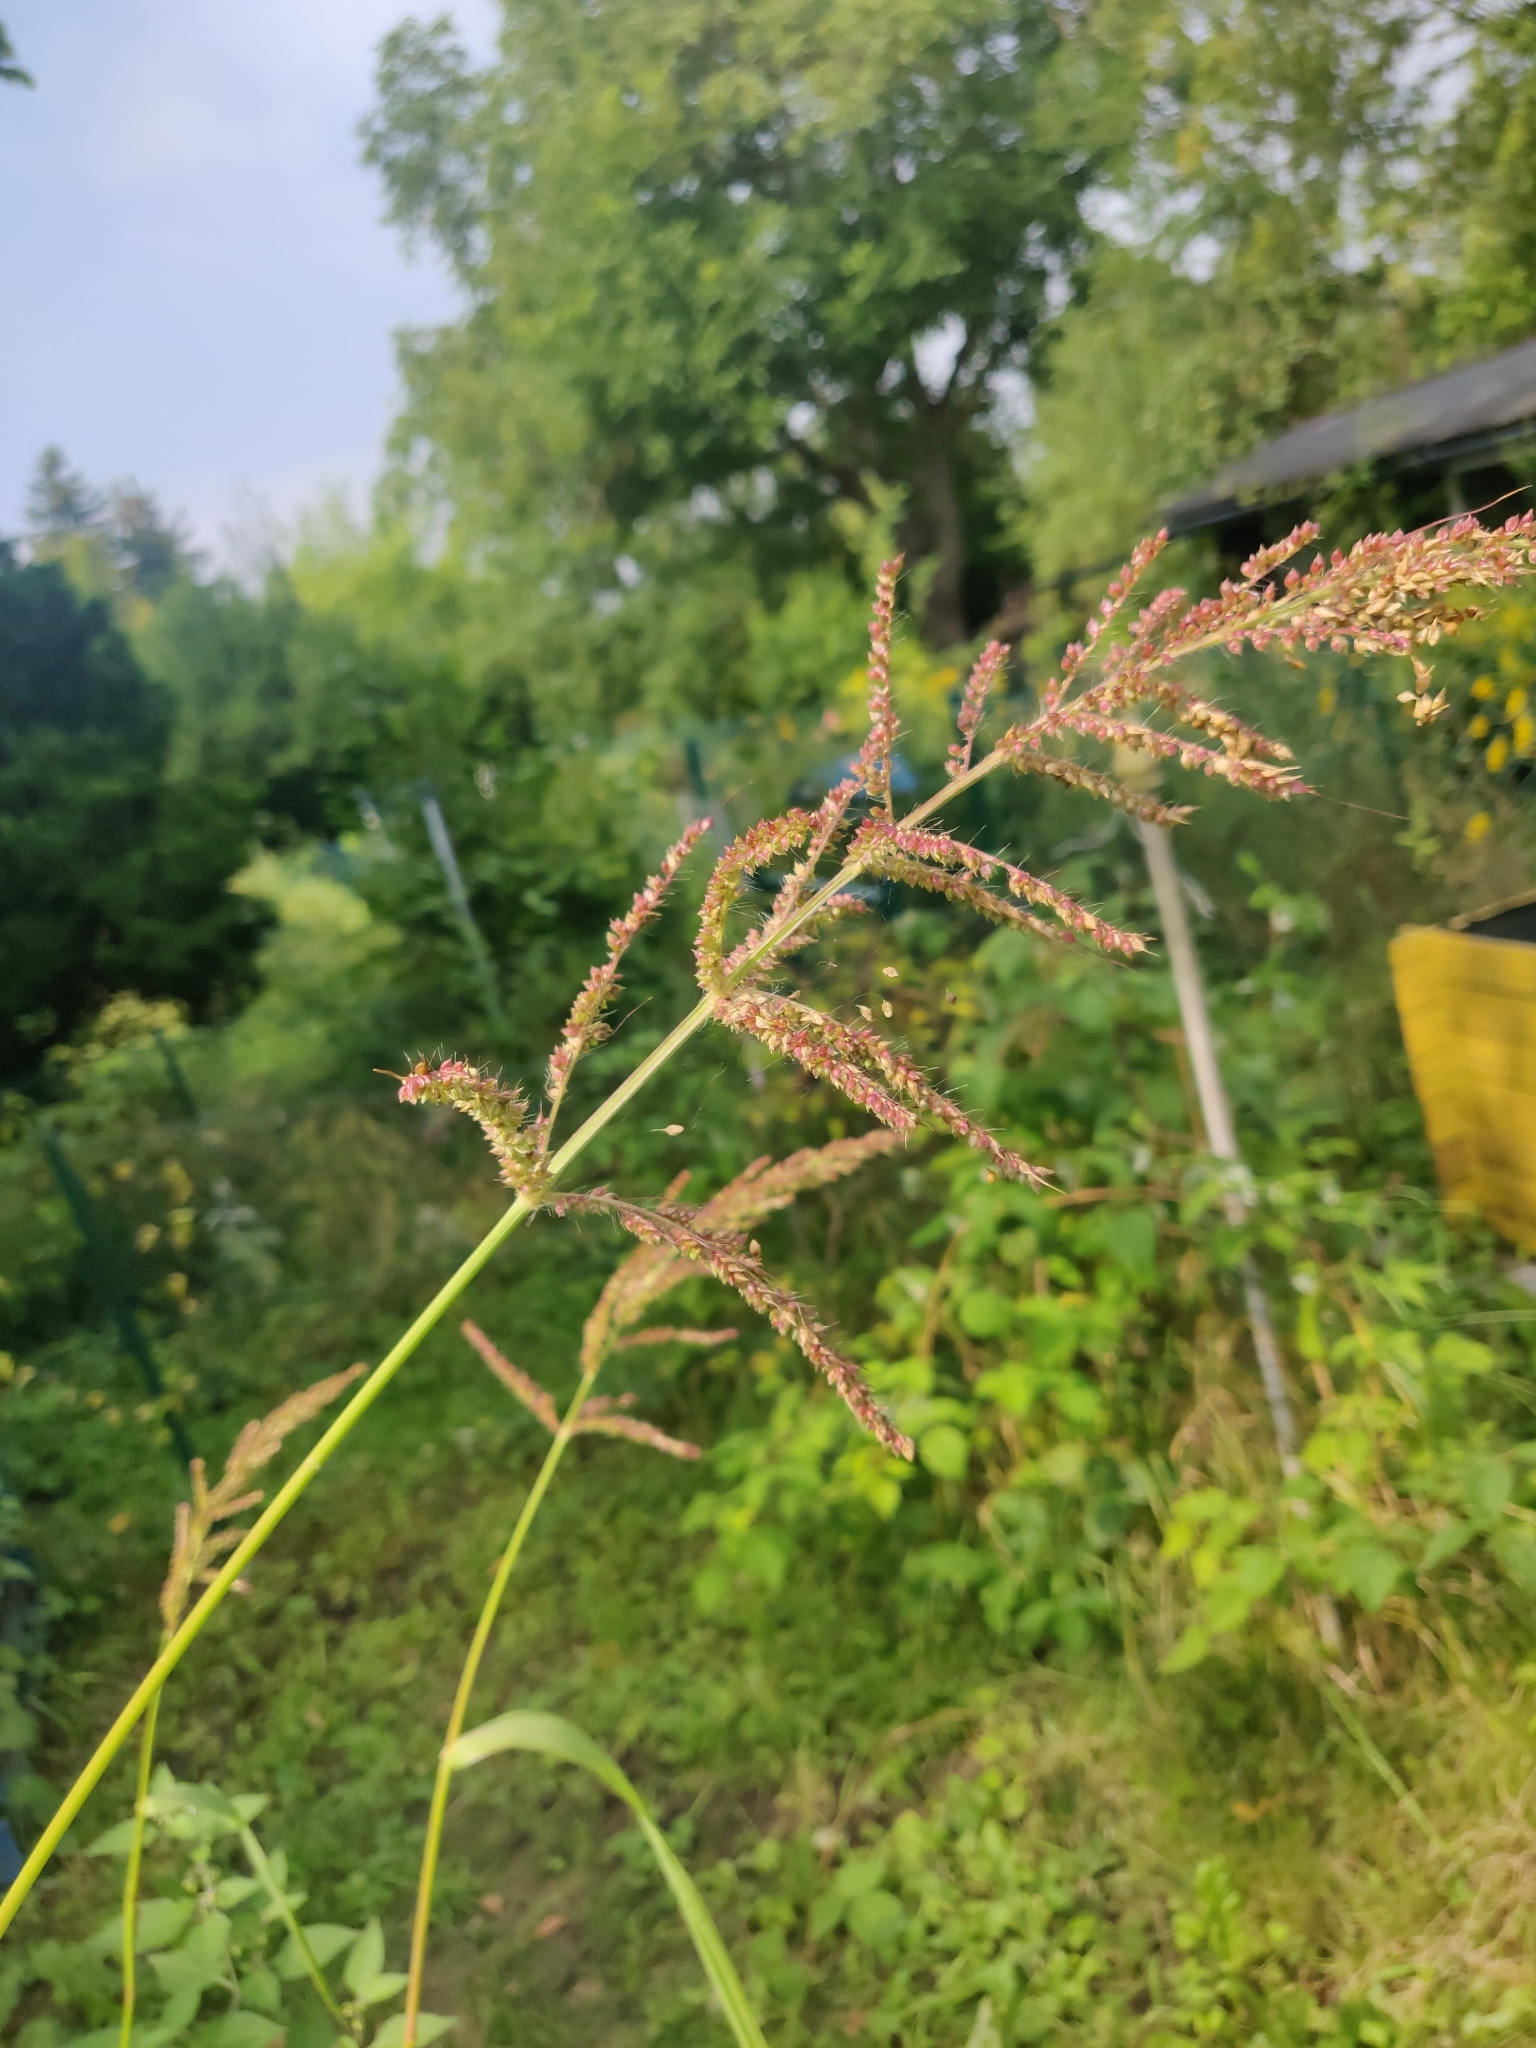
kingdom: Plantae
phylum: Tracheophyta
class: Liliopsida
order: Poales
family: Poaceae
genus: Echinochloa
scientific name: Echinochloa crus-galli
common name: Cockspur
